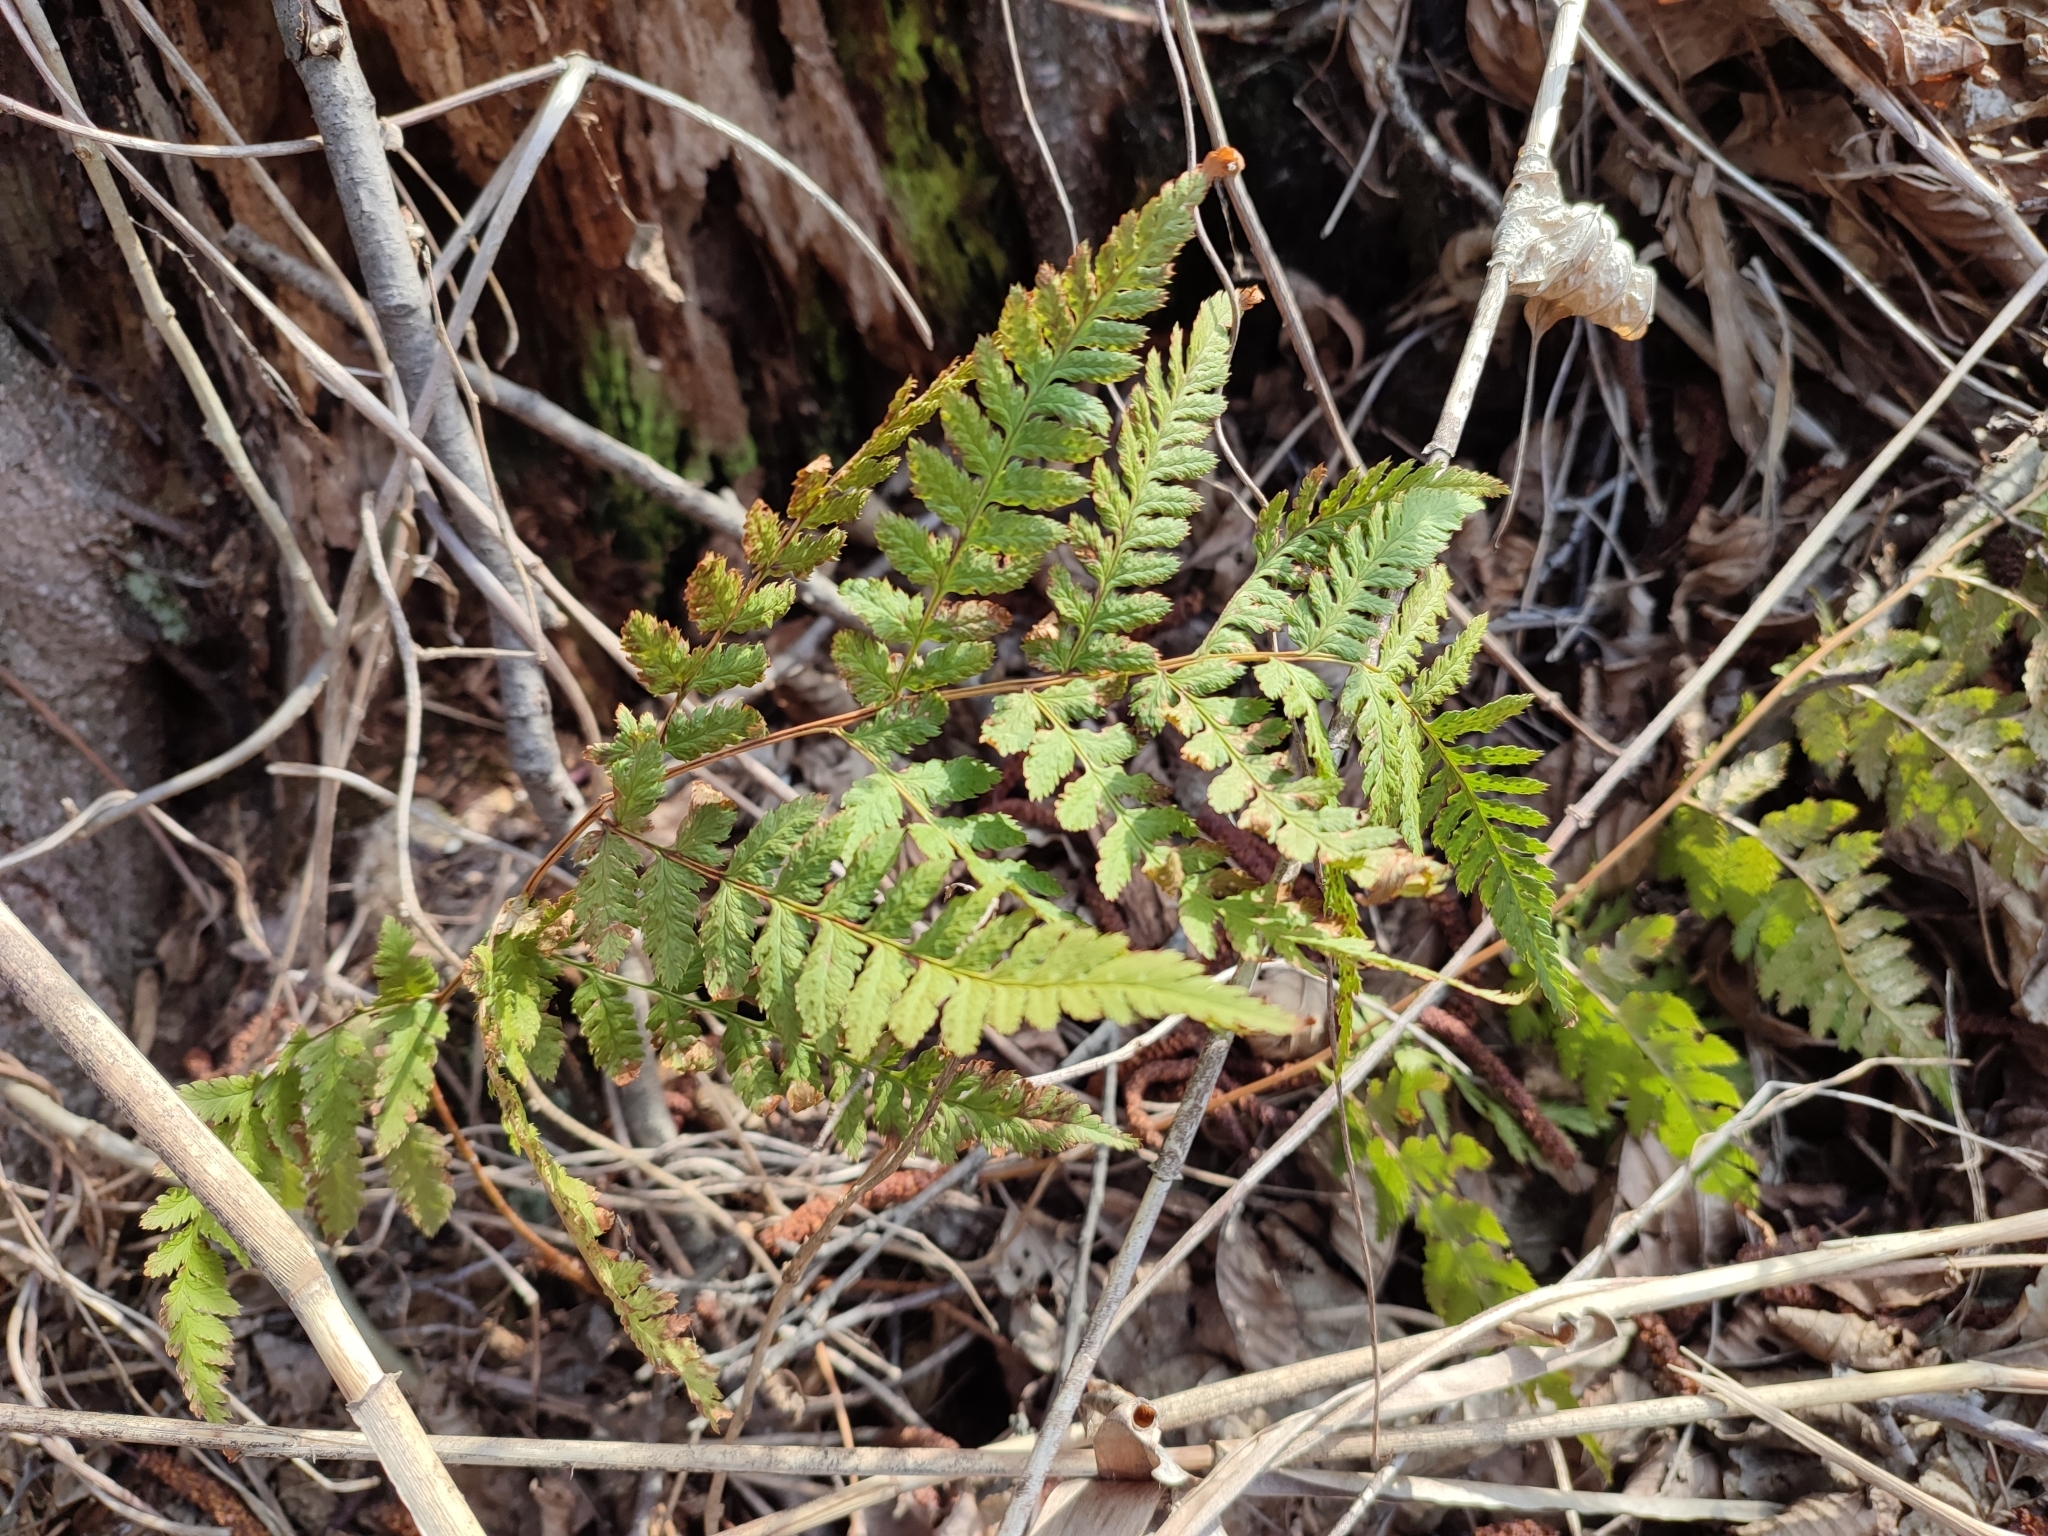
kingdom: Plantae
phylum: Tracheophyta
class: Polypodiopsida
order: Polypodiales
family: Dryopteridaceae
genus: Dryopteris
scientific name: Dryopteris carthusiana
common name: Narrow buckler-fern
